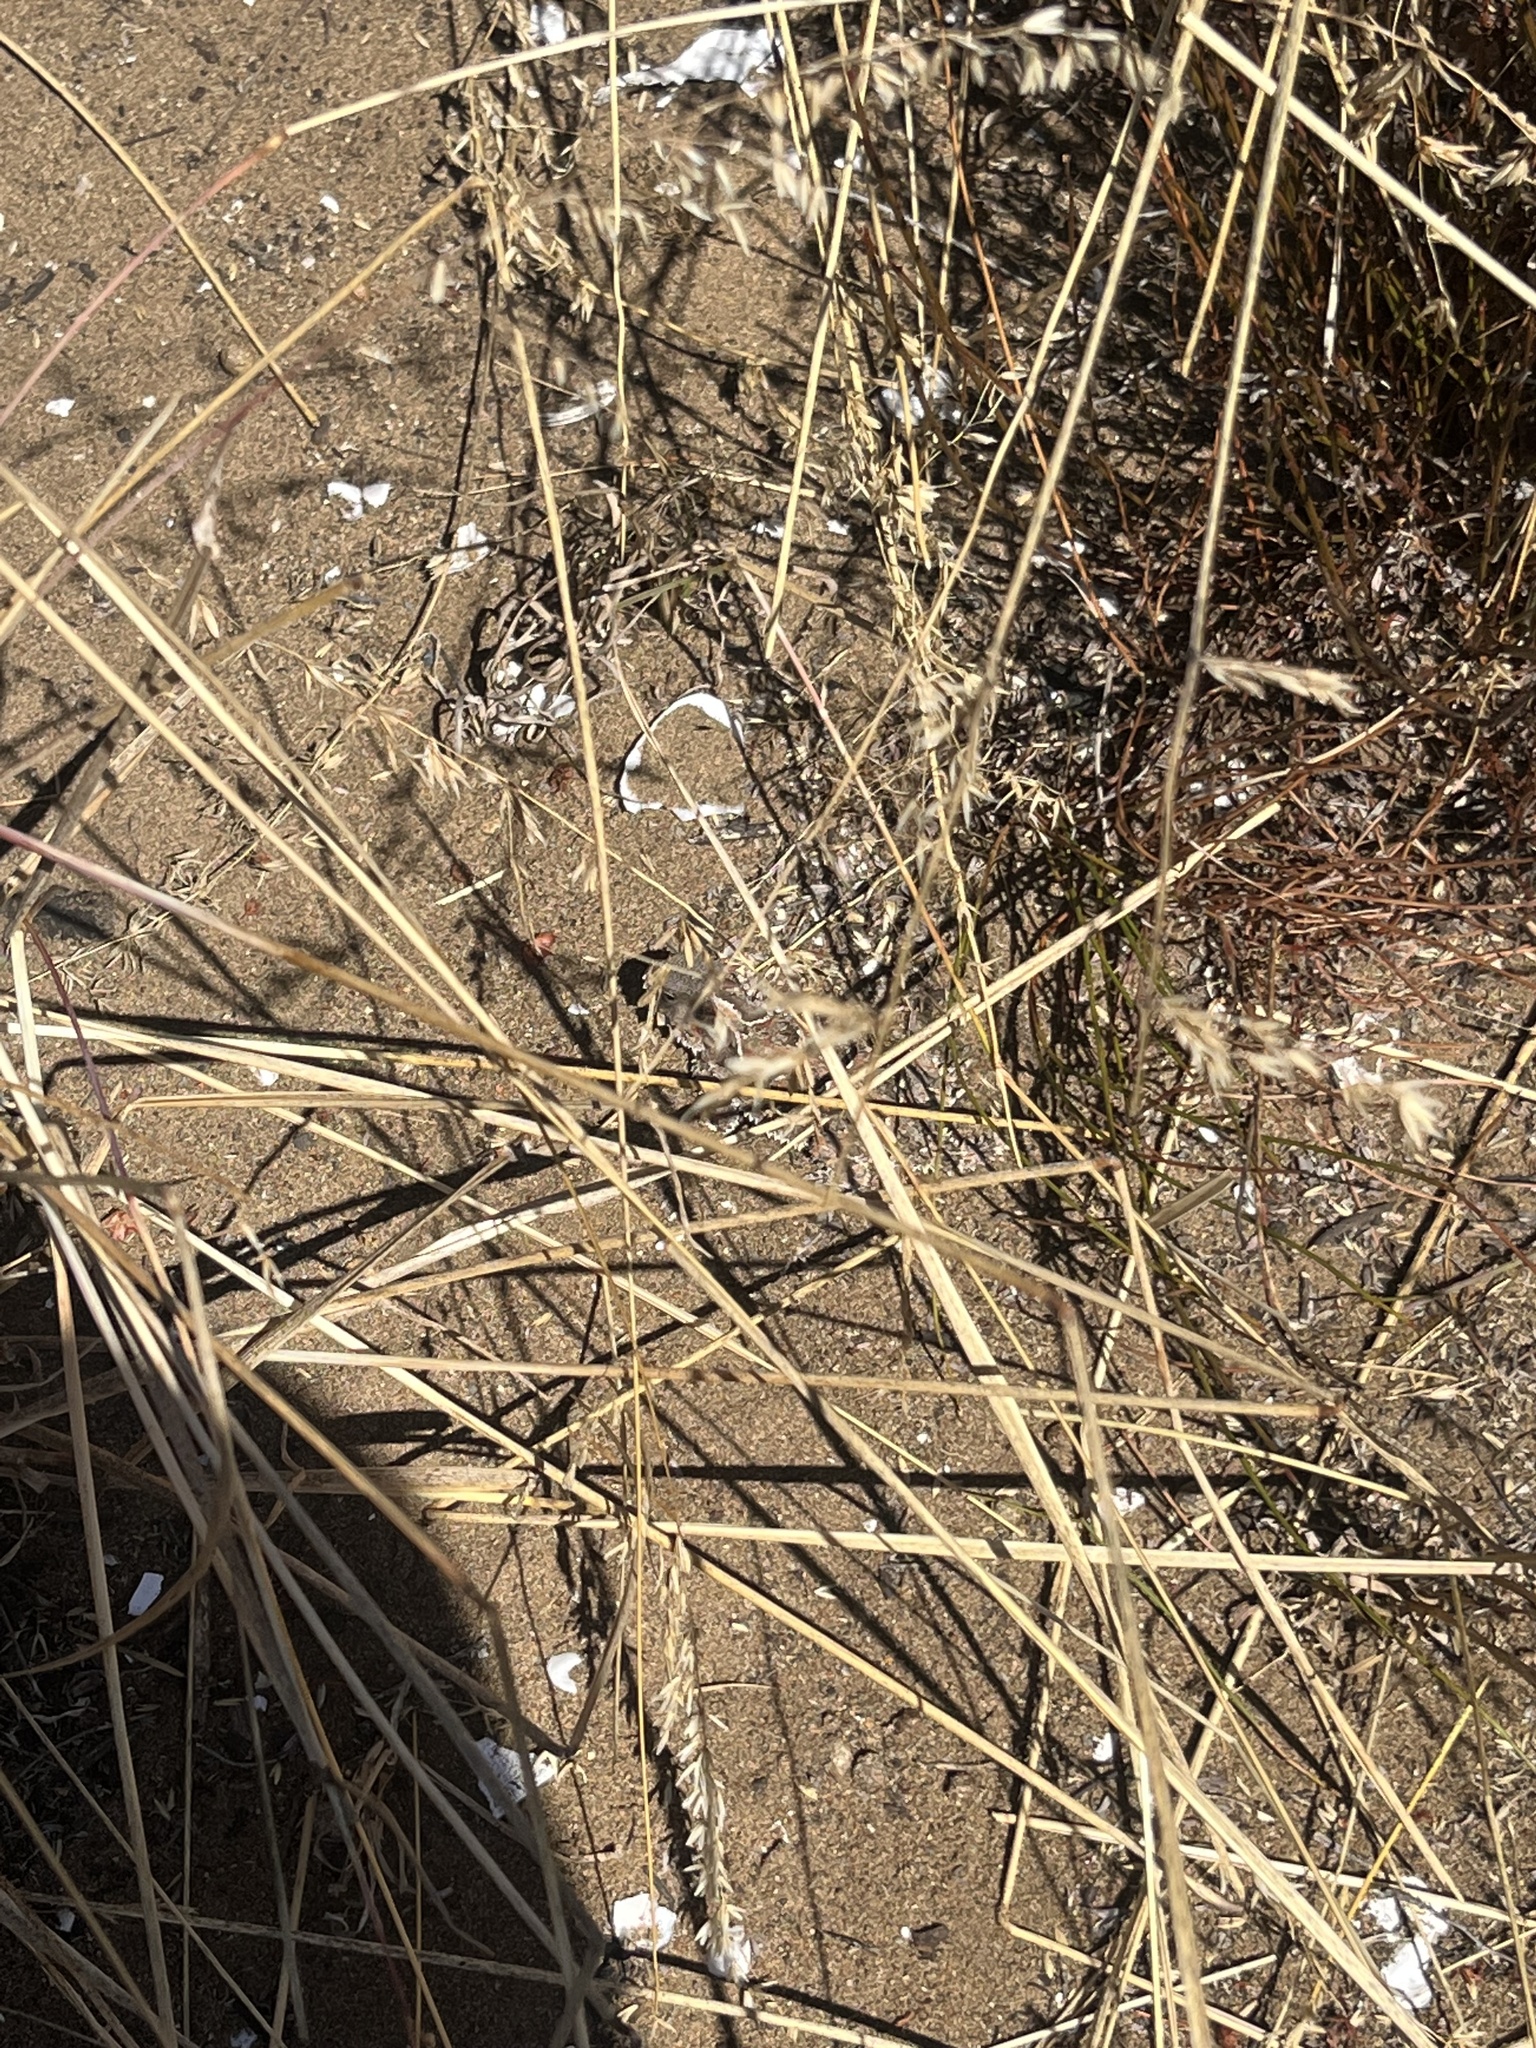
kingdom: Animalia
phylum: Chordata
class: Squamata
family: Phrynosomatidae
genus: Phrynosoma
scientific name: Phrynosoma blainvillii
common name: San diego horned lizard
